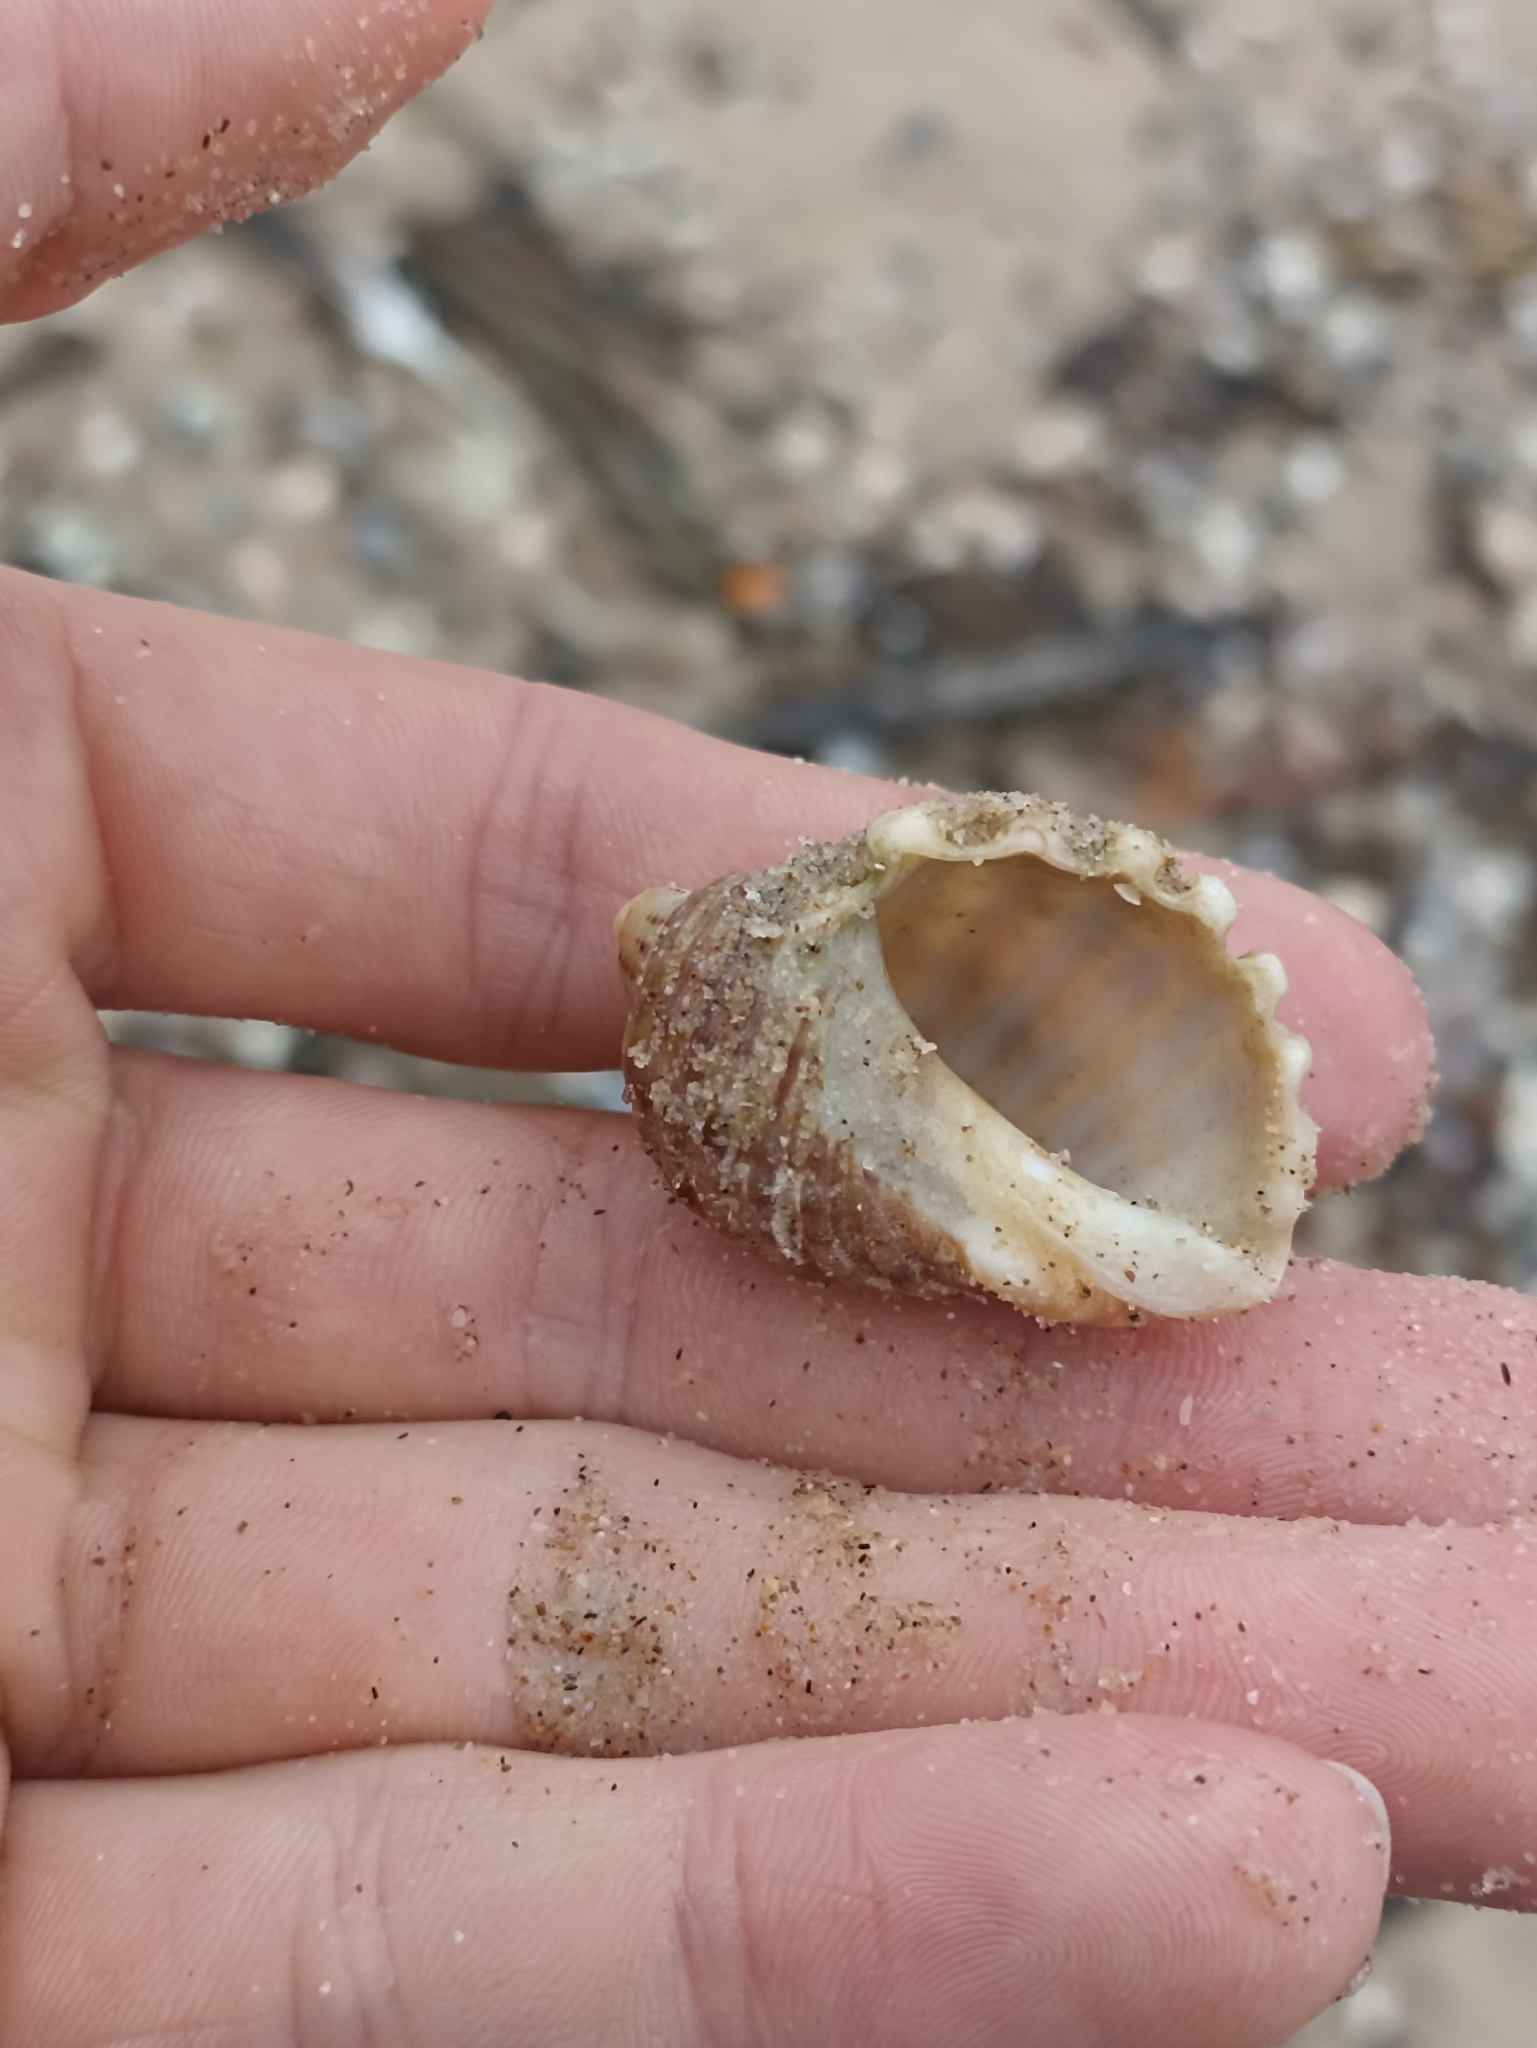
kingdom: Animalia
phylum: Mollusca
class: Gastropoda
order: Neogastropoda
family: Muricidae
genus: Dicathais
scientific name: Dicathais orbita
